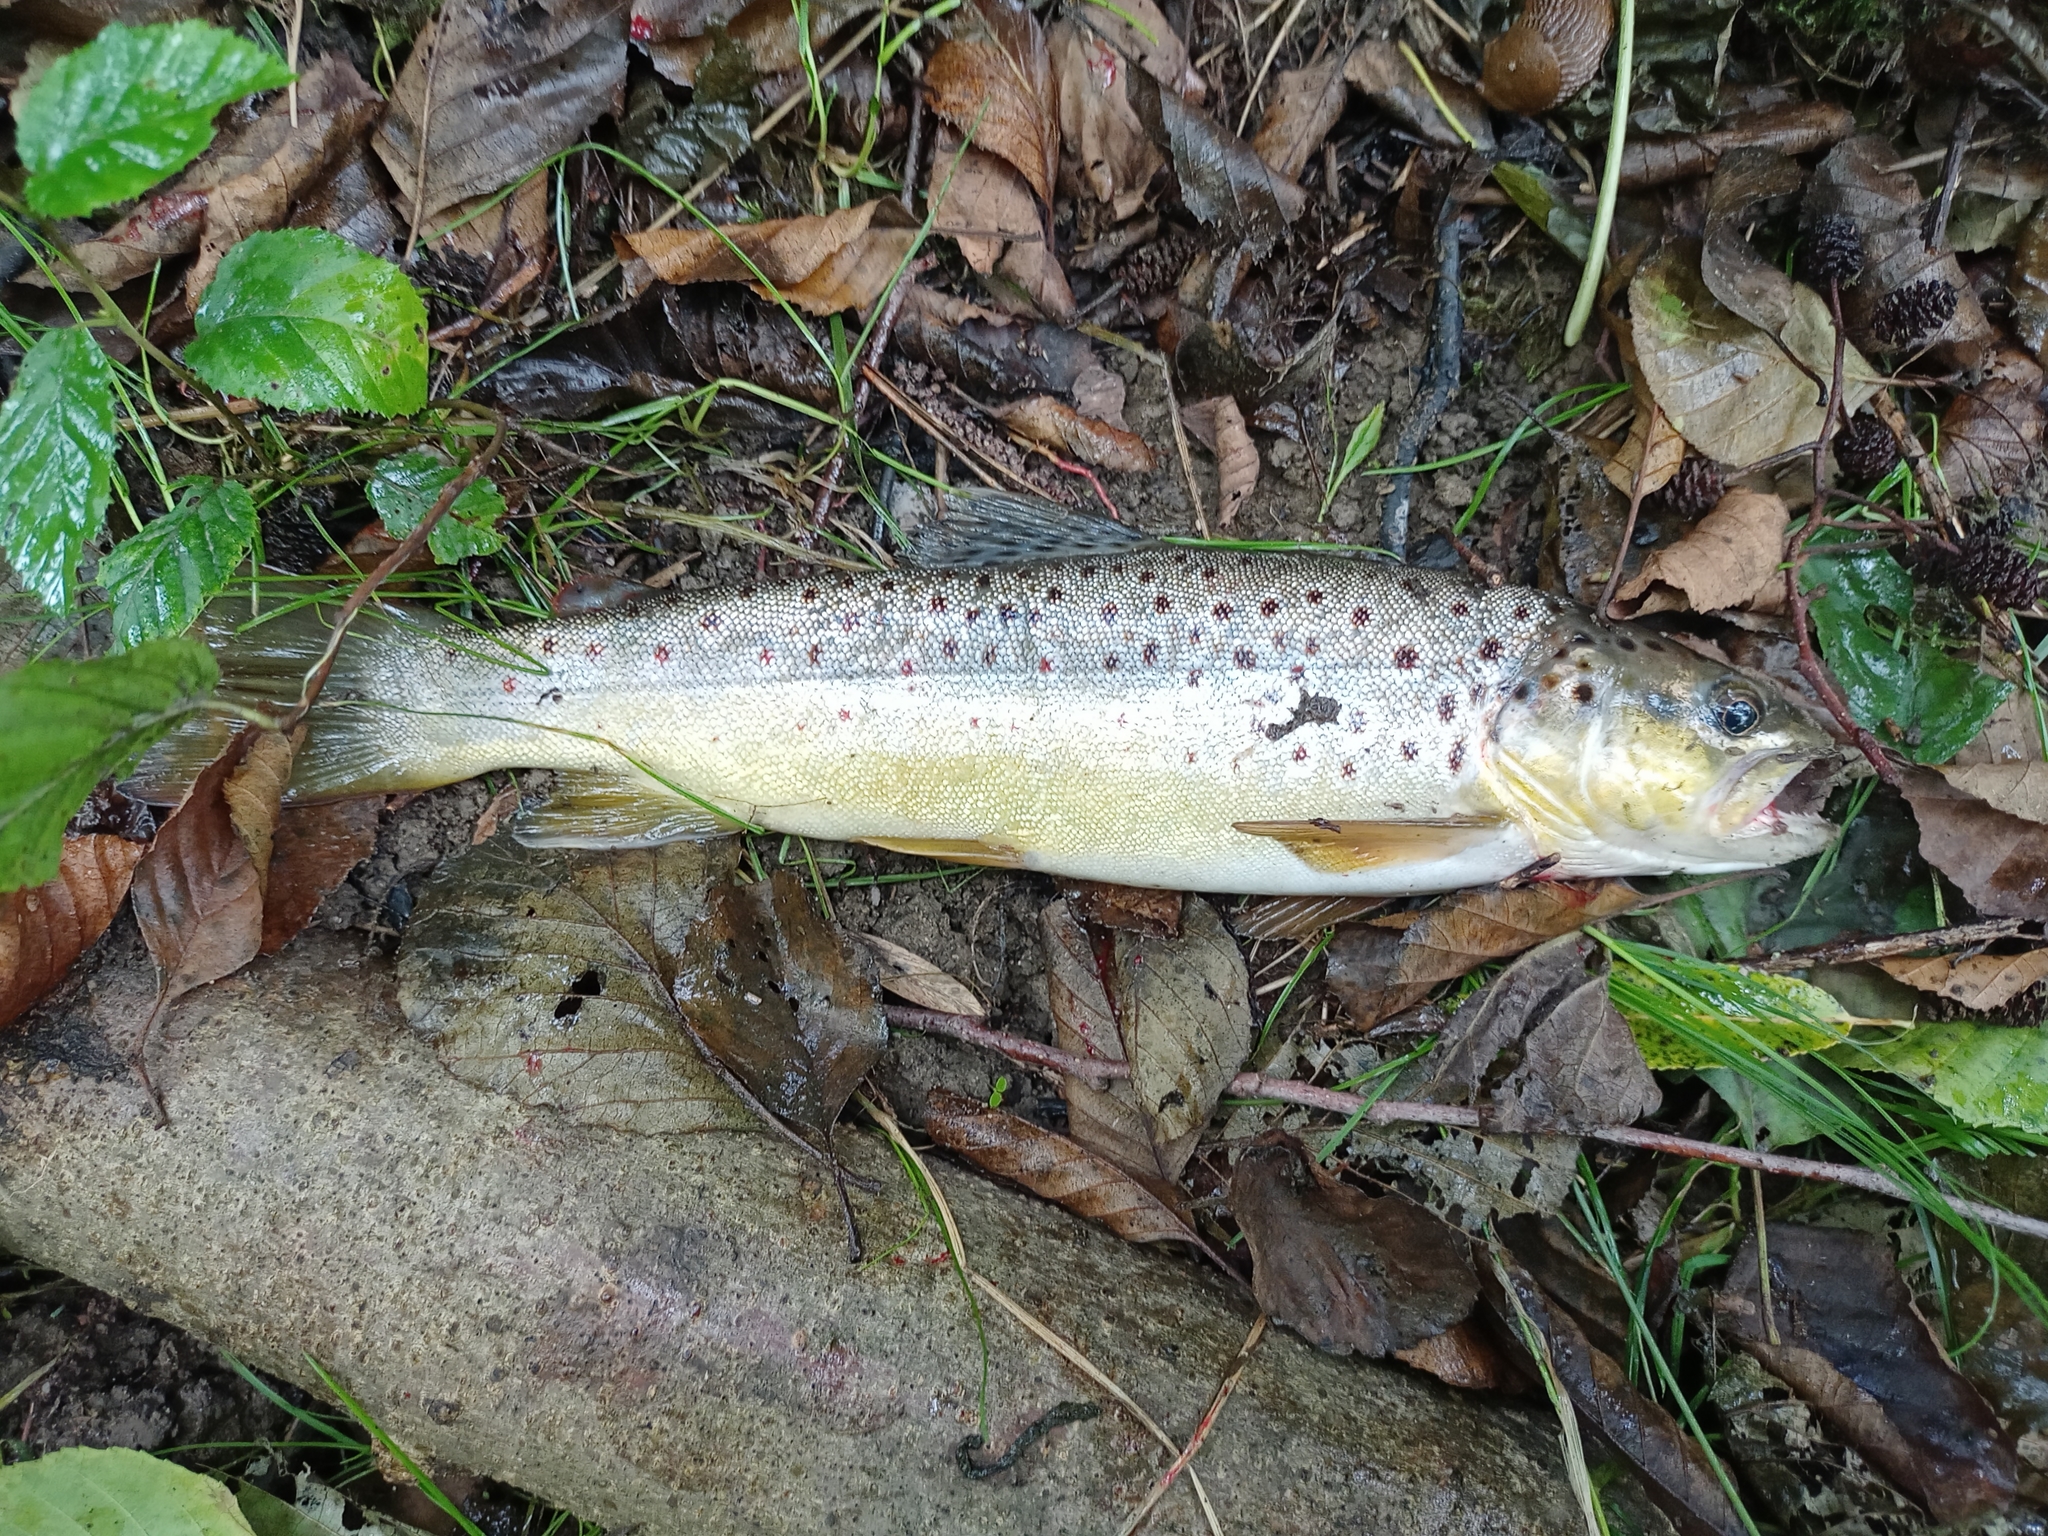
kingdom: Animalia
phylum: Chordata
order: Salmoniformes
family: Salmonidae
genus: Salmo
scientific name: Salmo trutta
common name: Brown trout
